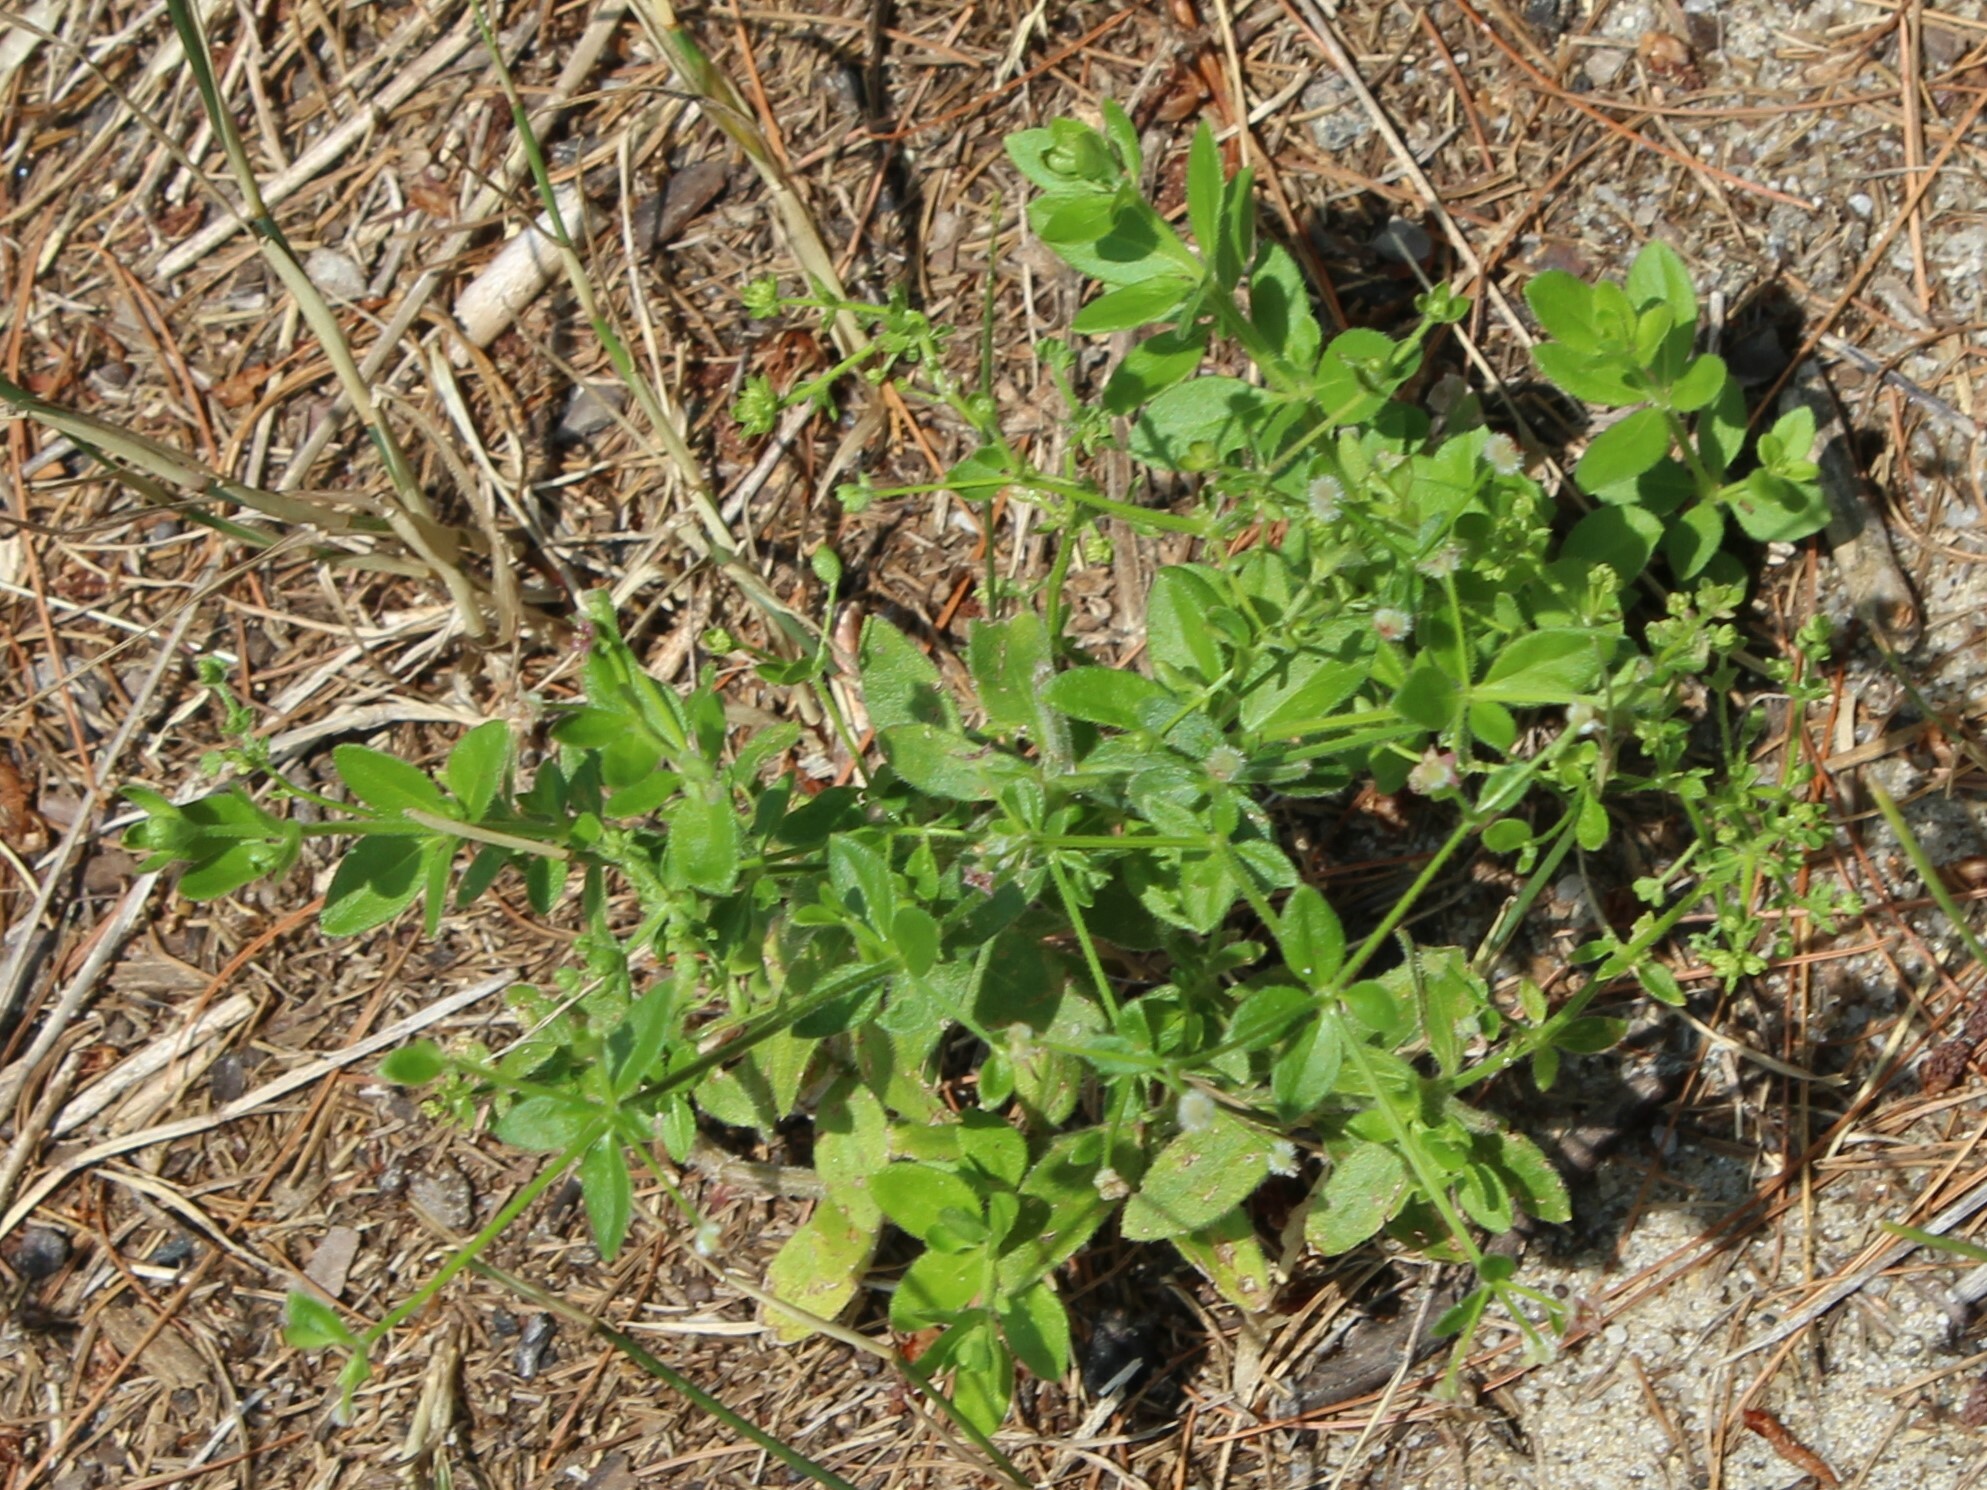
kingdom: Plantae
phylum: Tracheophyta
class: Magnoliopsida
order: Gentianales
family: Rubiaceae
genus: Galium
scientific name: Galium pilosum
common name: Hairy bedstraw
